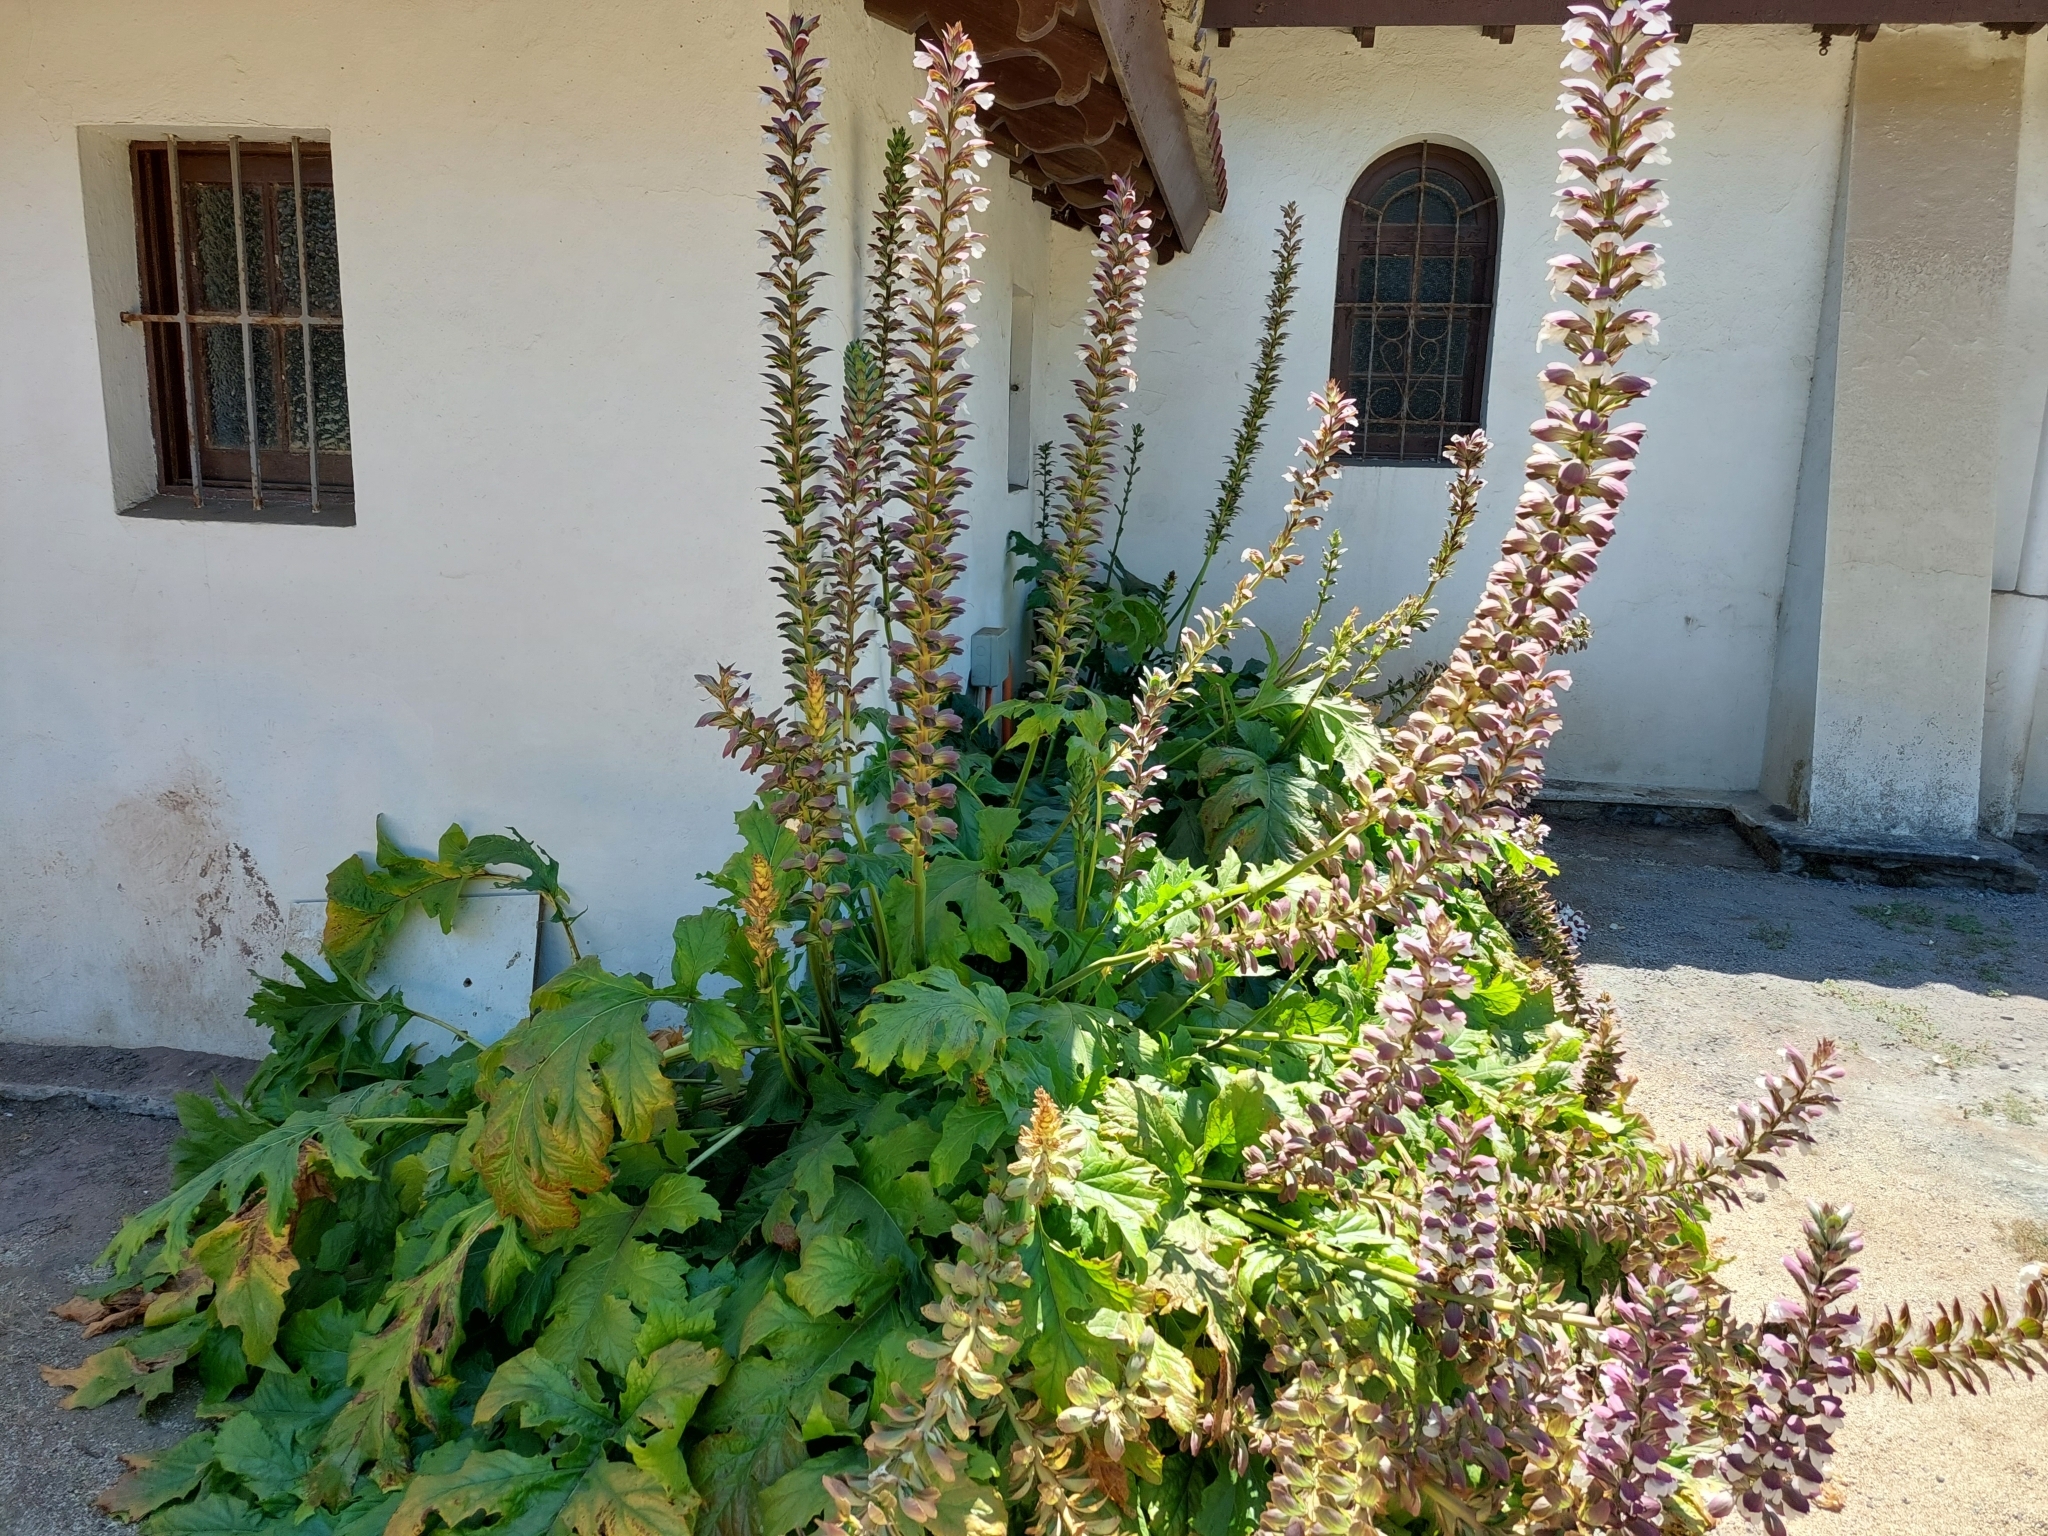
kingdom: Plantae
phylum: Tracheophyta
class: Magnoliopsida
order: Lamiales
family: Acanthaceae
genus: Acanthus
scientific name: Acanthus mollis
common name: Bear's-breech
